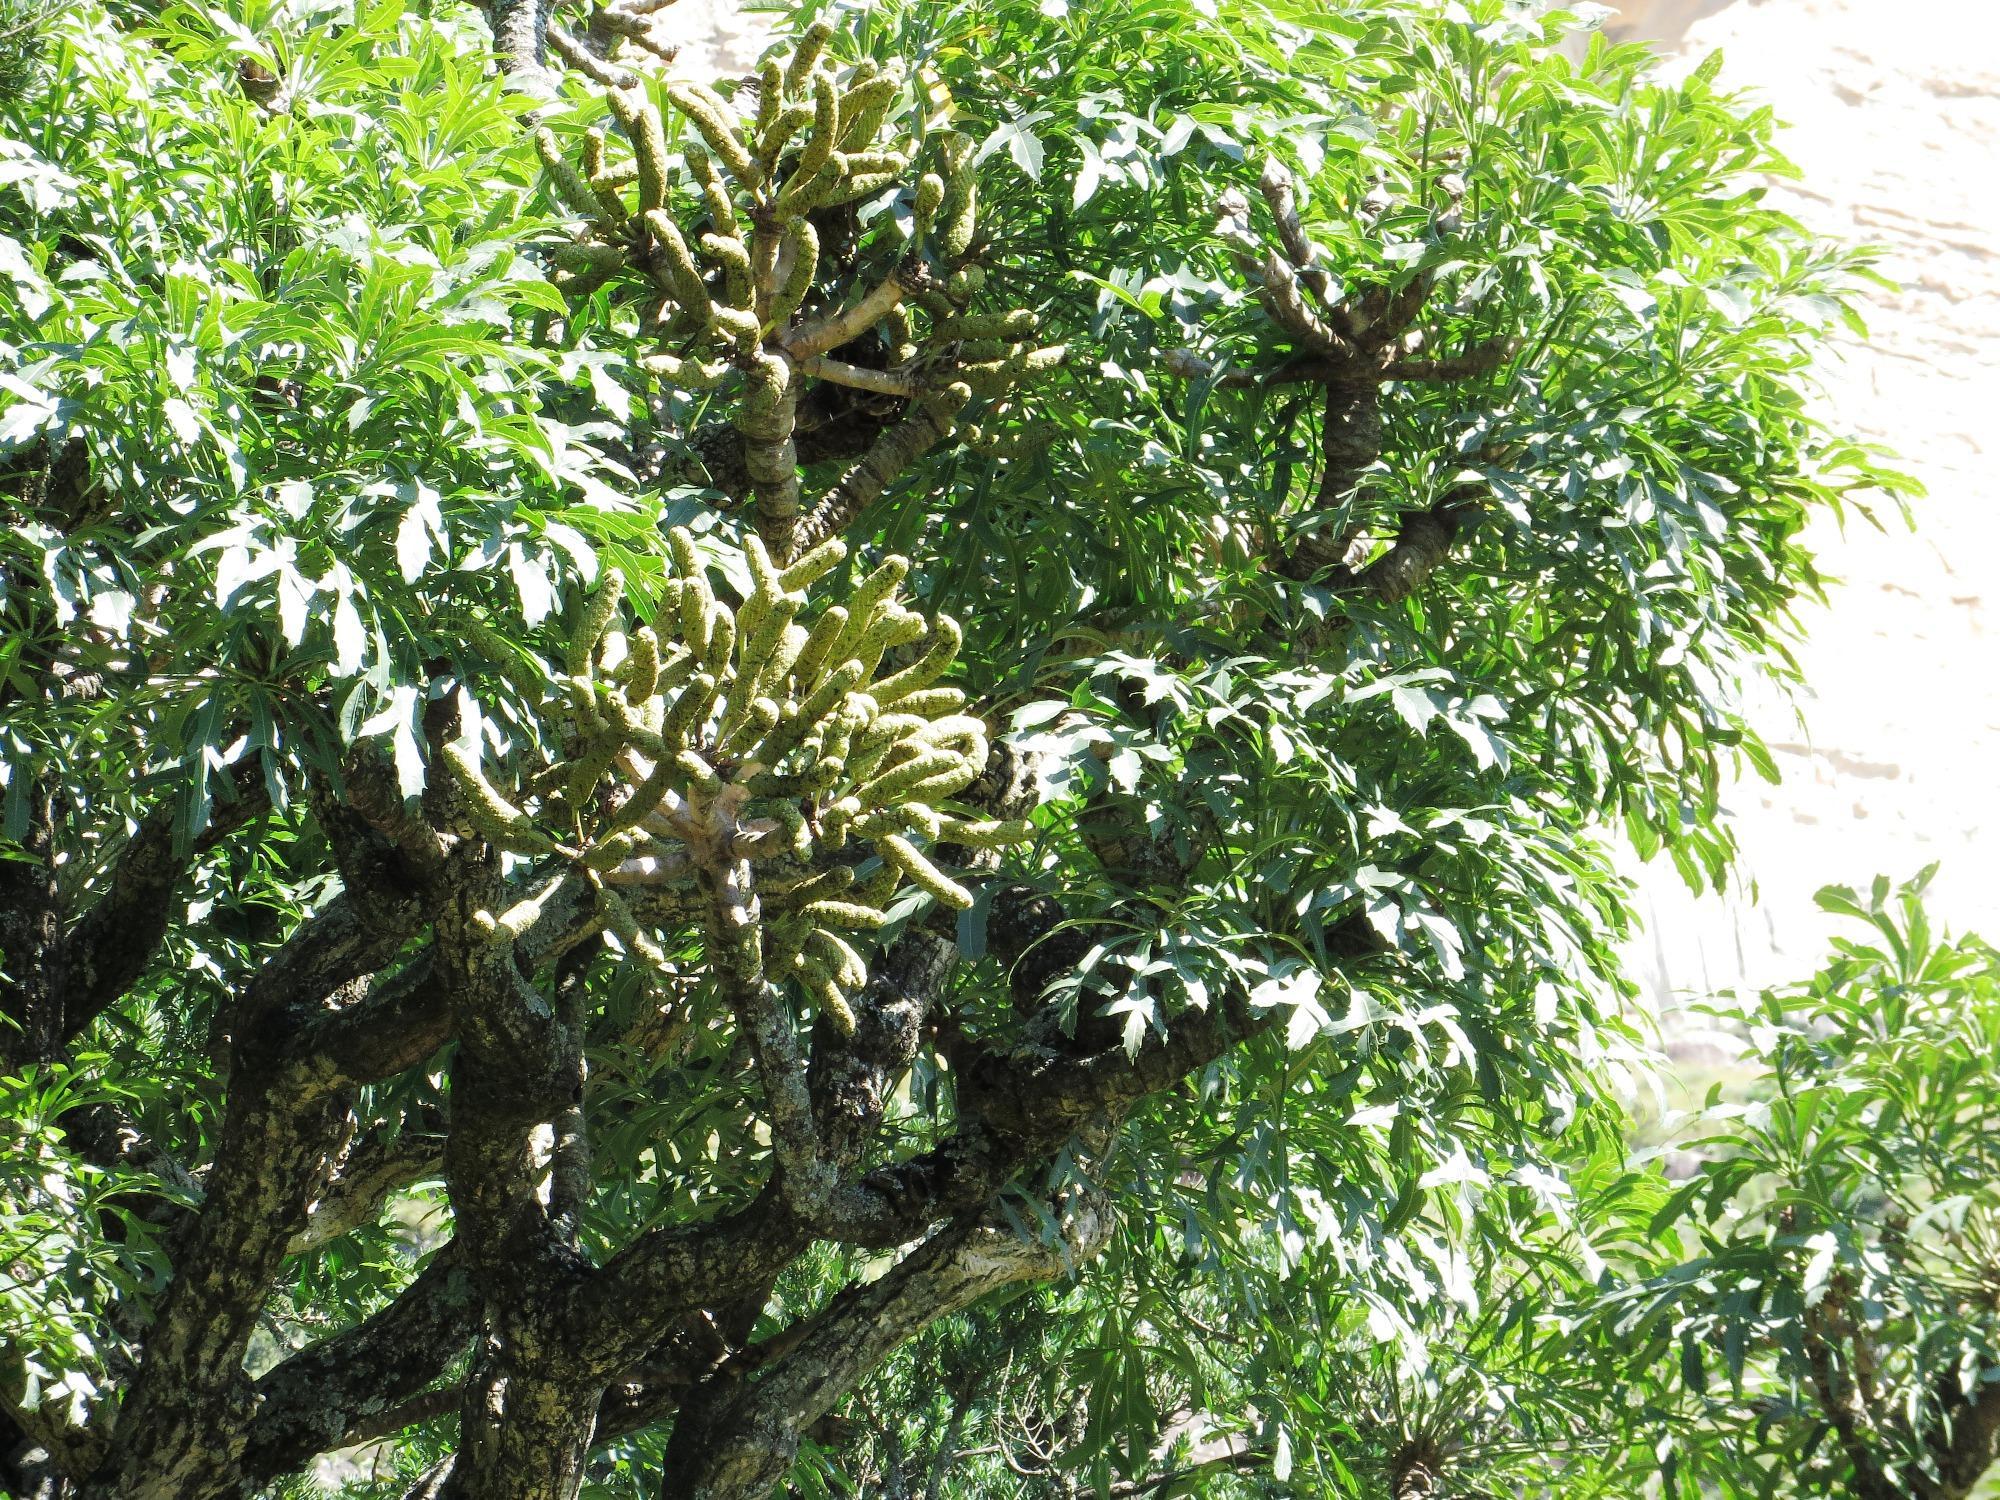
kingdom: Plantae
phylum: Tracheophyta
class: Liliopsida
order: Asparagales
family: Orchidaceae
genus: Polystachya
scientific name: Polystachya ottoniana
